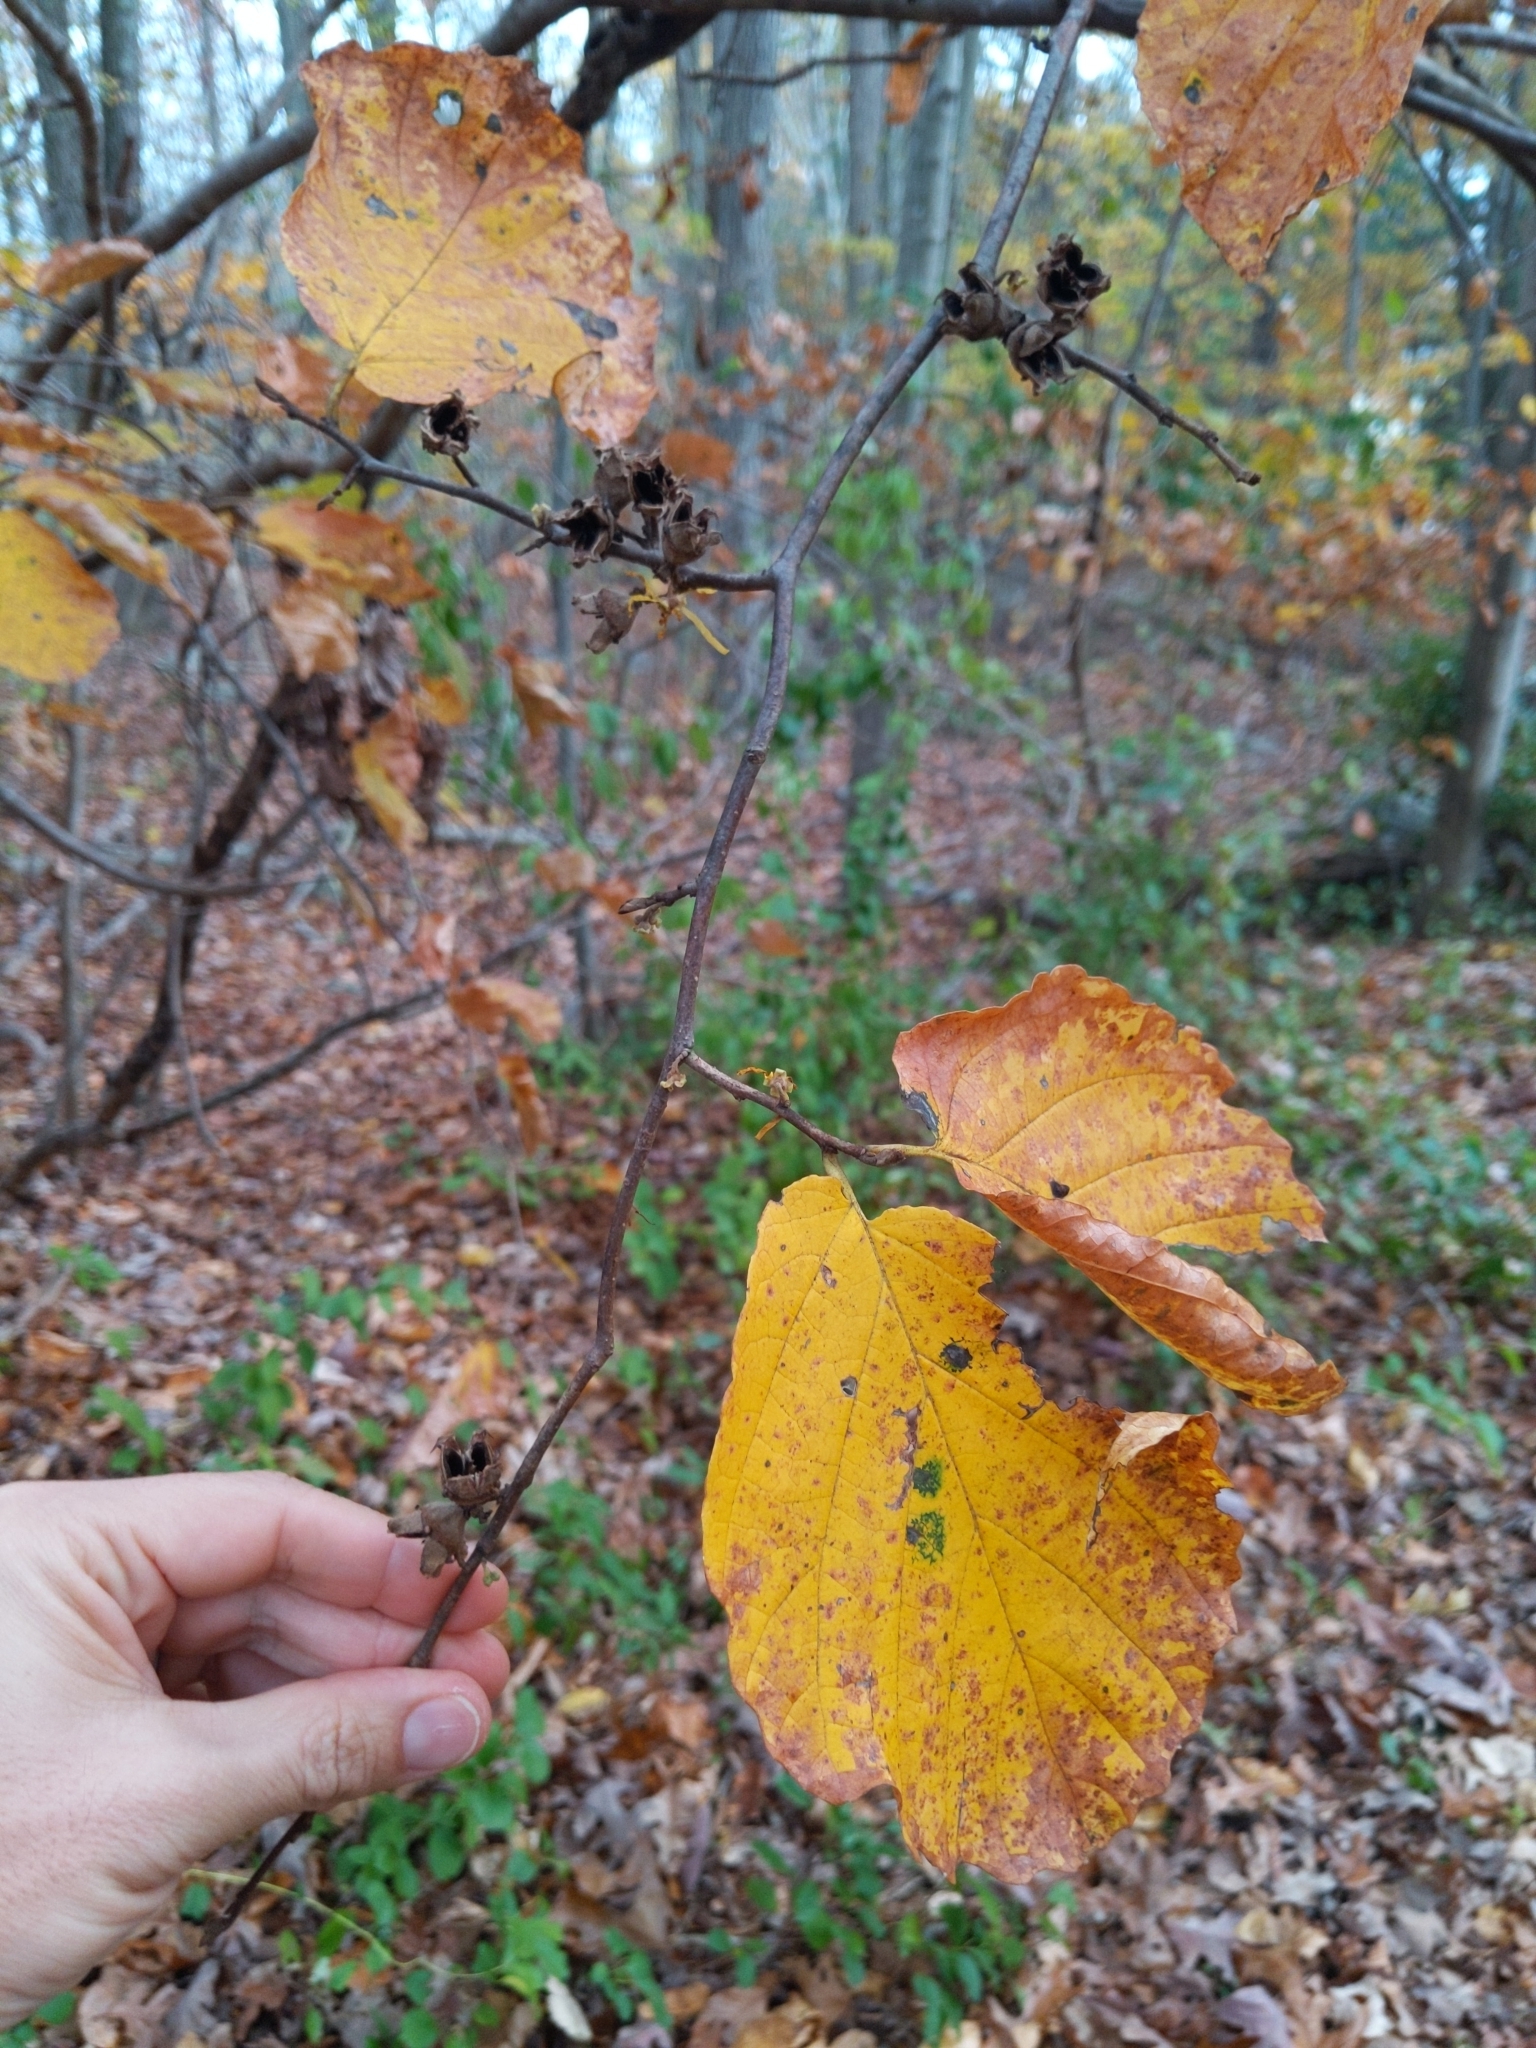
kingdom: Plantae
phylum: Tracheophyta
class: Magnoliopsida
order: Saxifragales
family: Hamamelidaceae
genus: Hamamelis
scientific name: Hamamelis virginiana
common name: Witch-hazel
